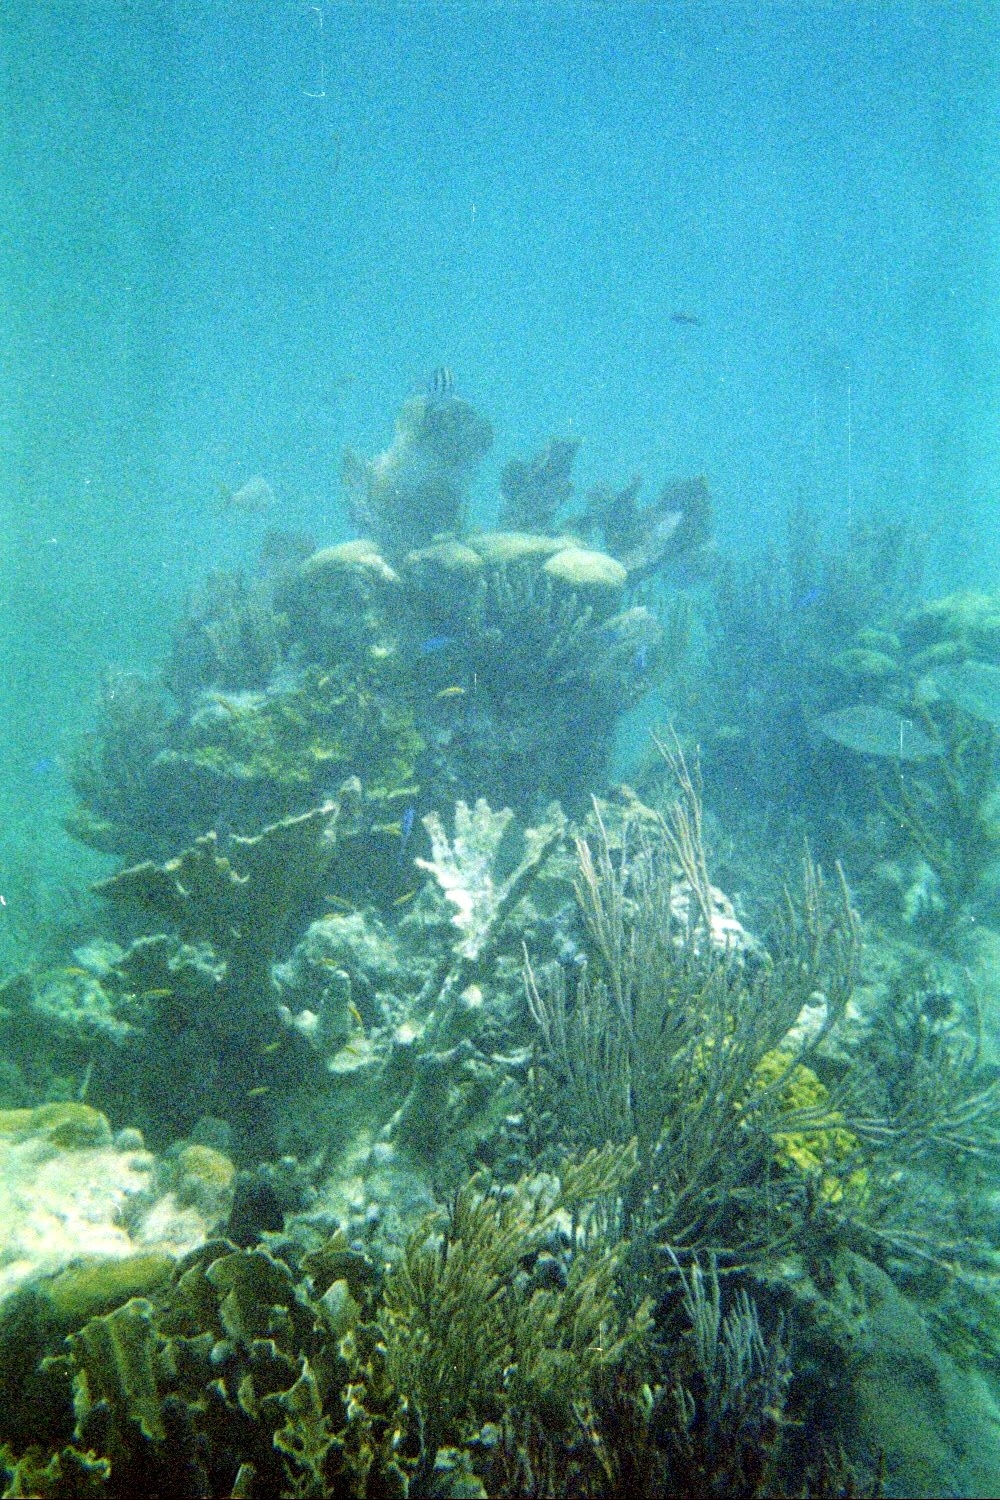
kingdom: Animalia
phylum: Cnidaria
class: Anthozoa
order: Scleractinia
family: Acroporidae
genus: Acropora
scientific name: Acropora palmata
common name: Elkhorn coral
